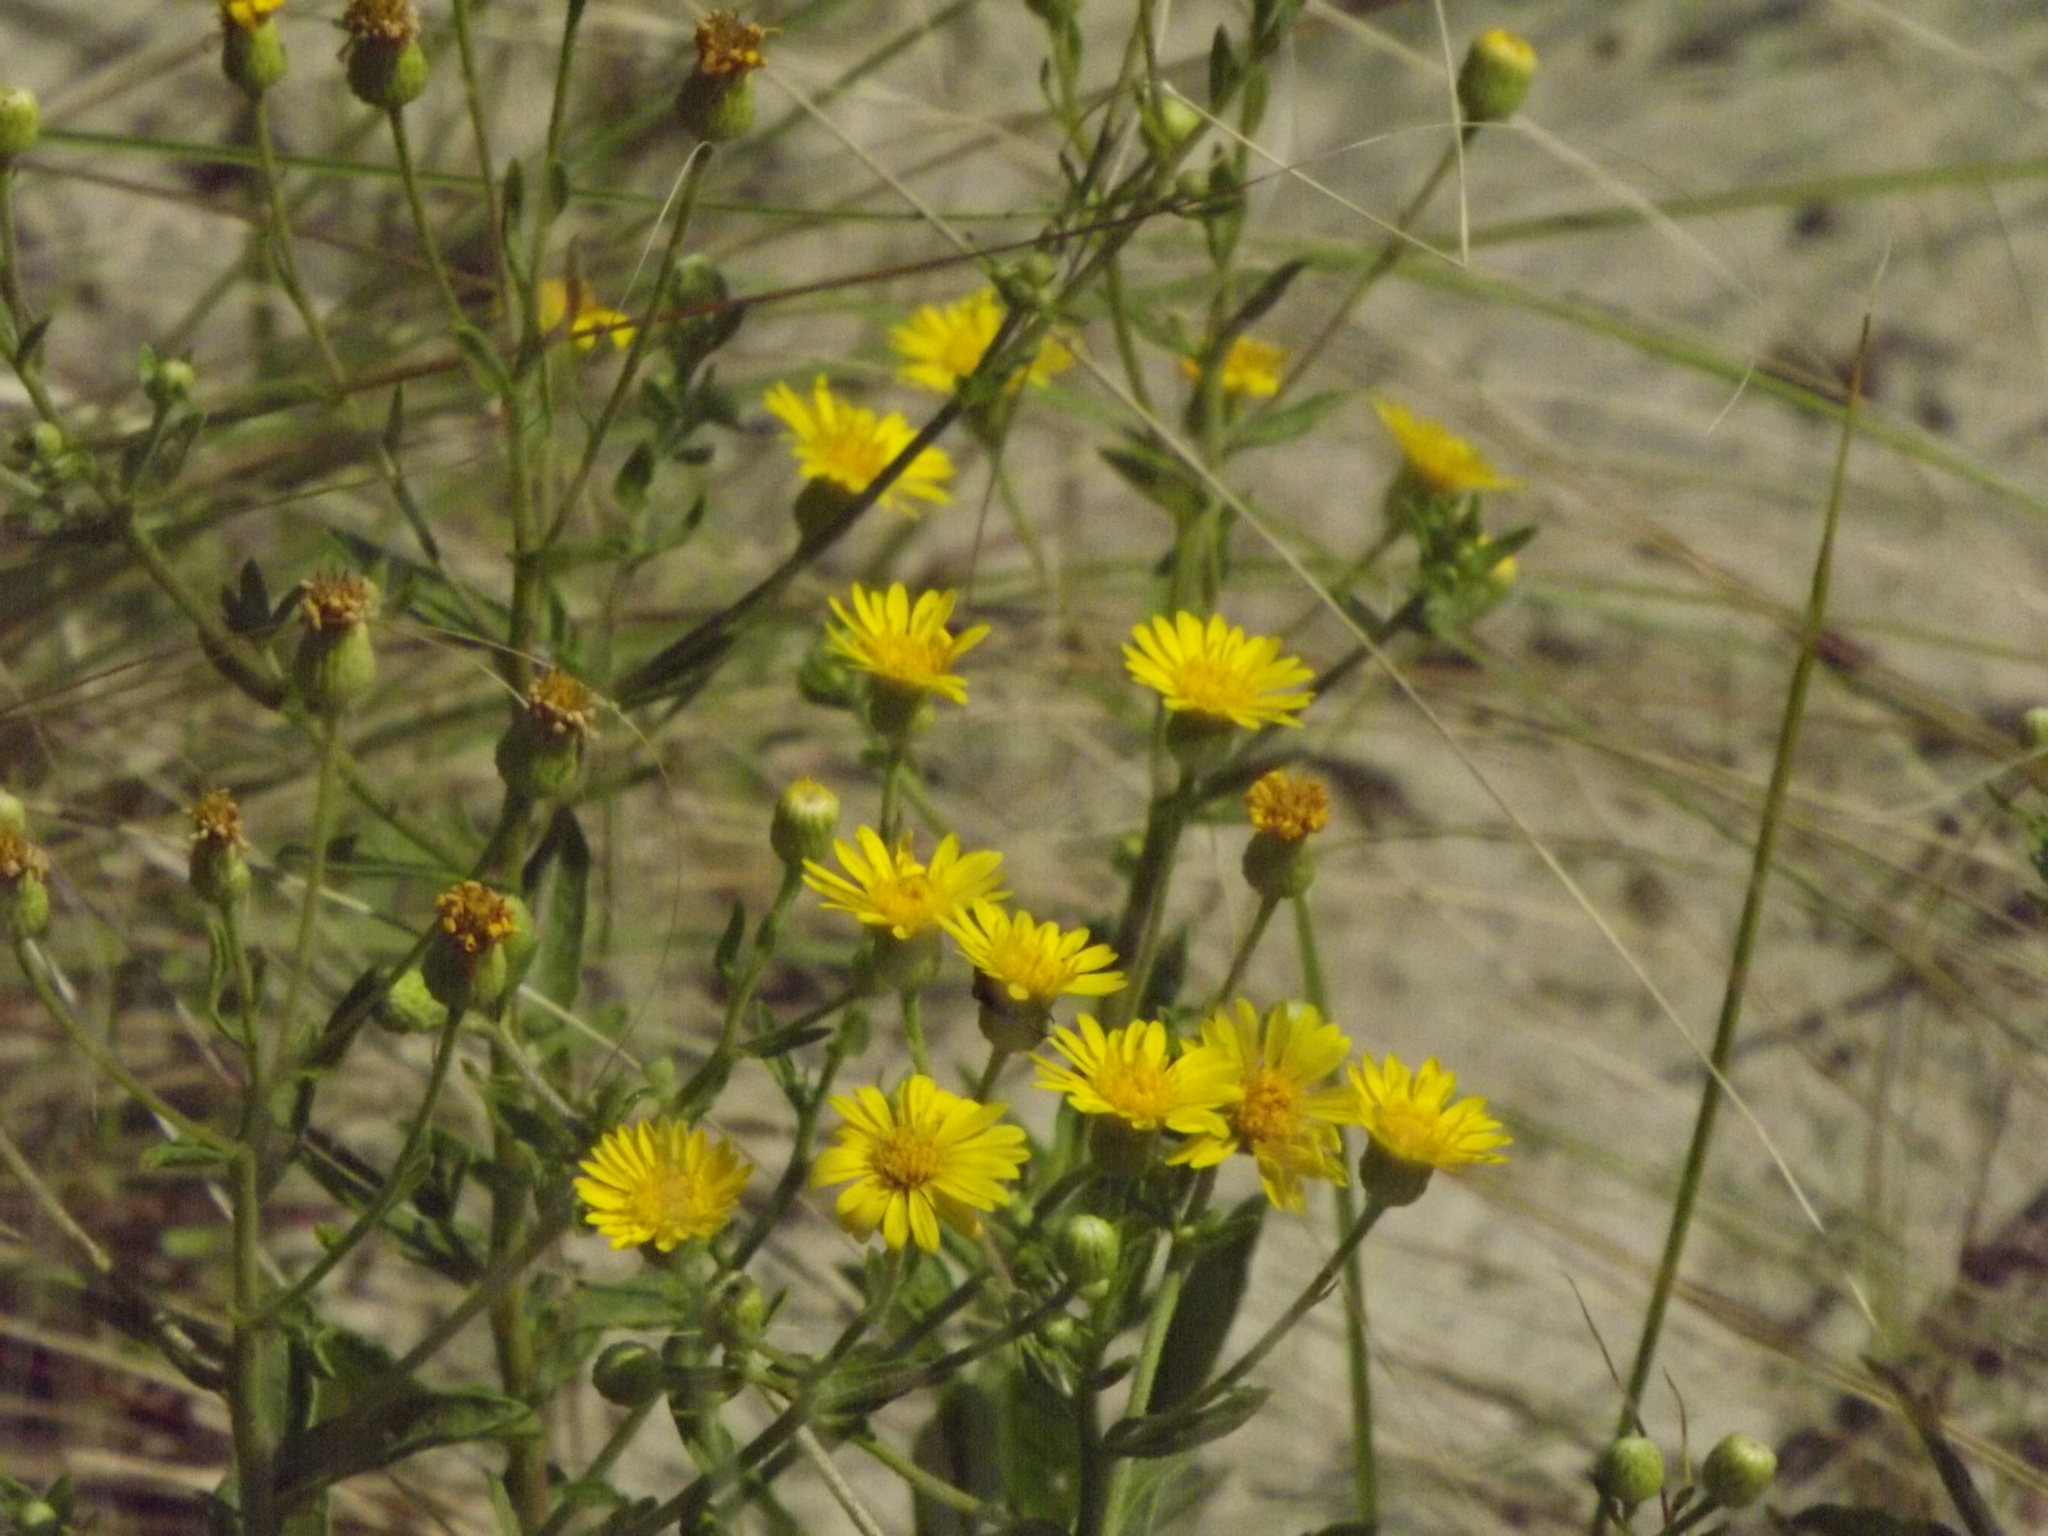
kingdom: Plantae
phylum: Tracheophyta
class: Magnoliopsida
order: Asterales
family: Asteraceae
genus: Heterotheca
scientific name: Heterotheca subaxillaris
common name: Camphorweed
